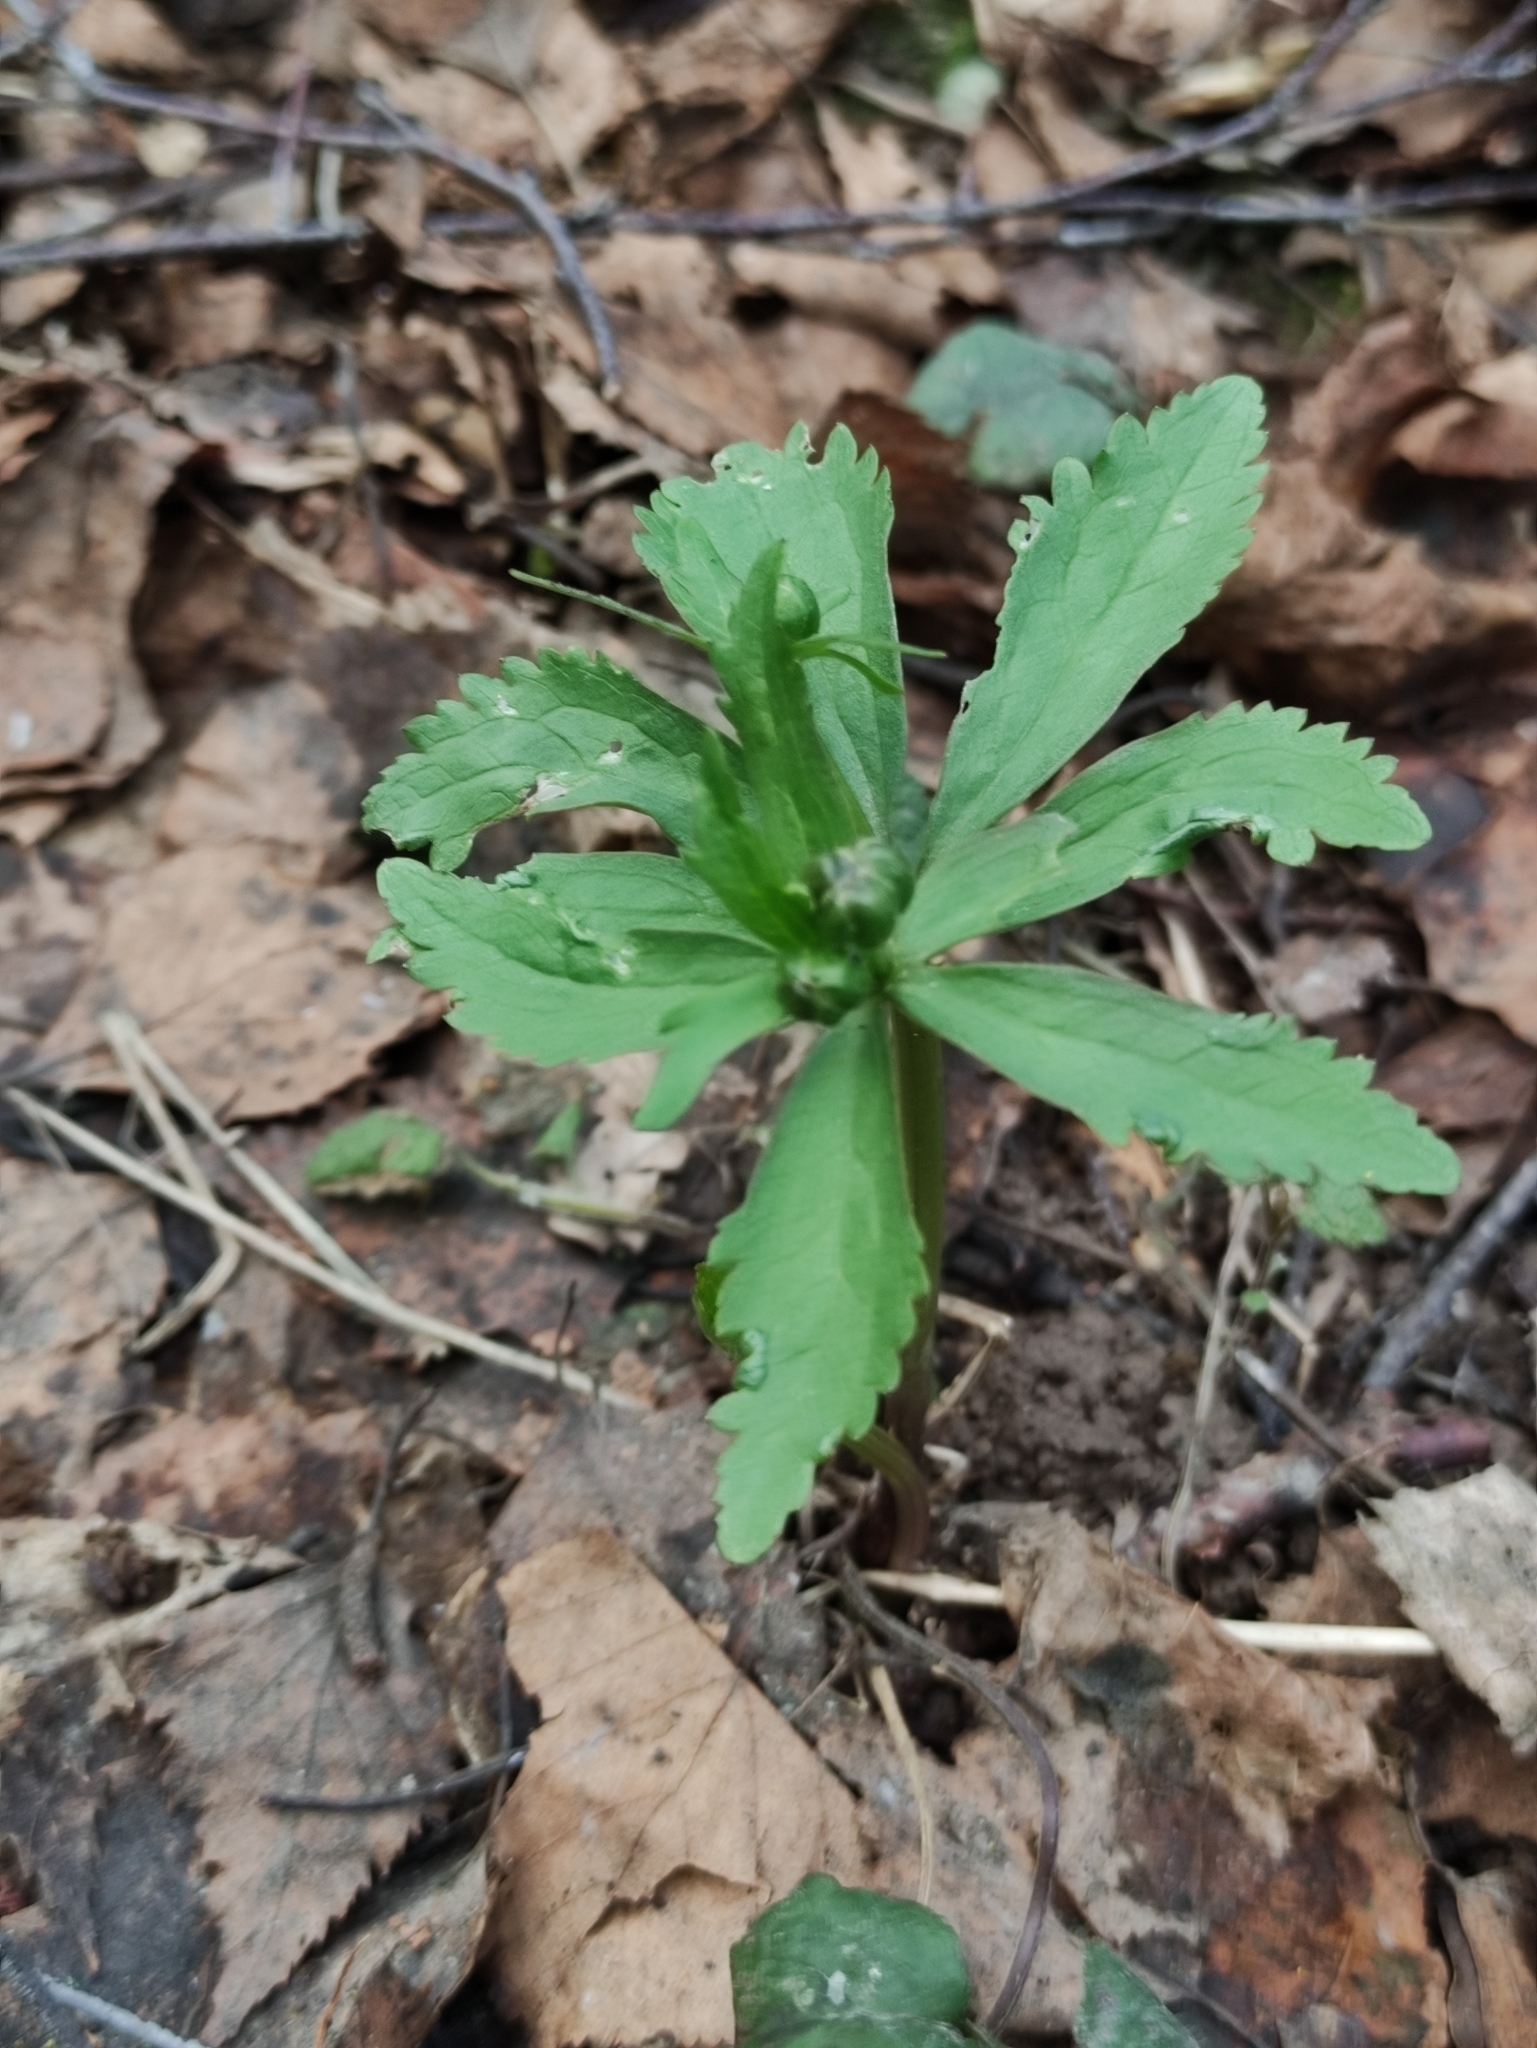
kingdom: Plantae
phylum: Tracheophyta
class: Magnoliopsida
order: Ranunculales
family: Ranunculaceae
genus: Ranunculus
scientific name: Ranunculus cassubicus
